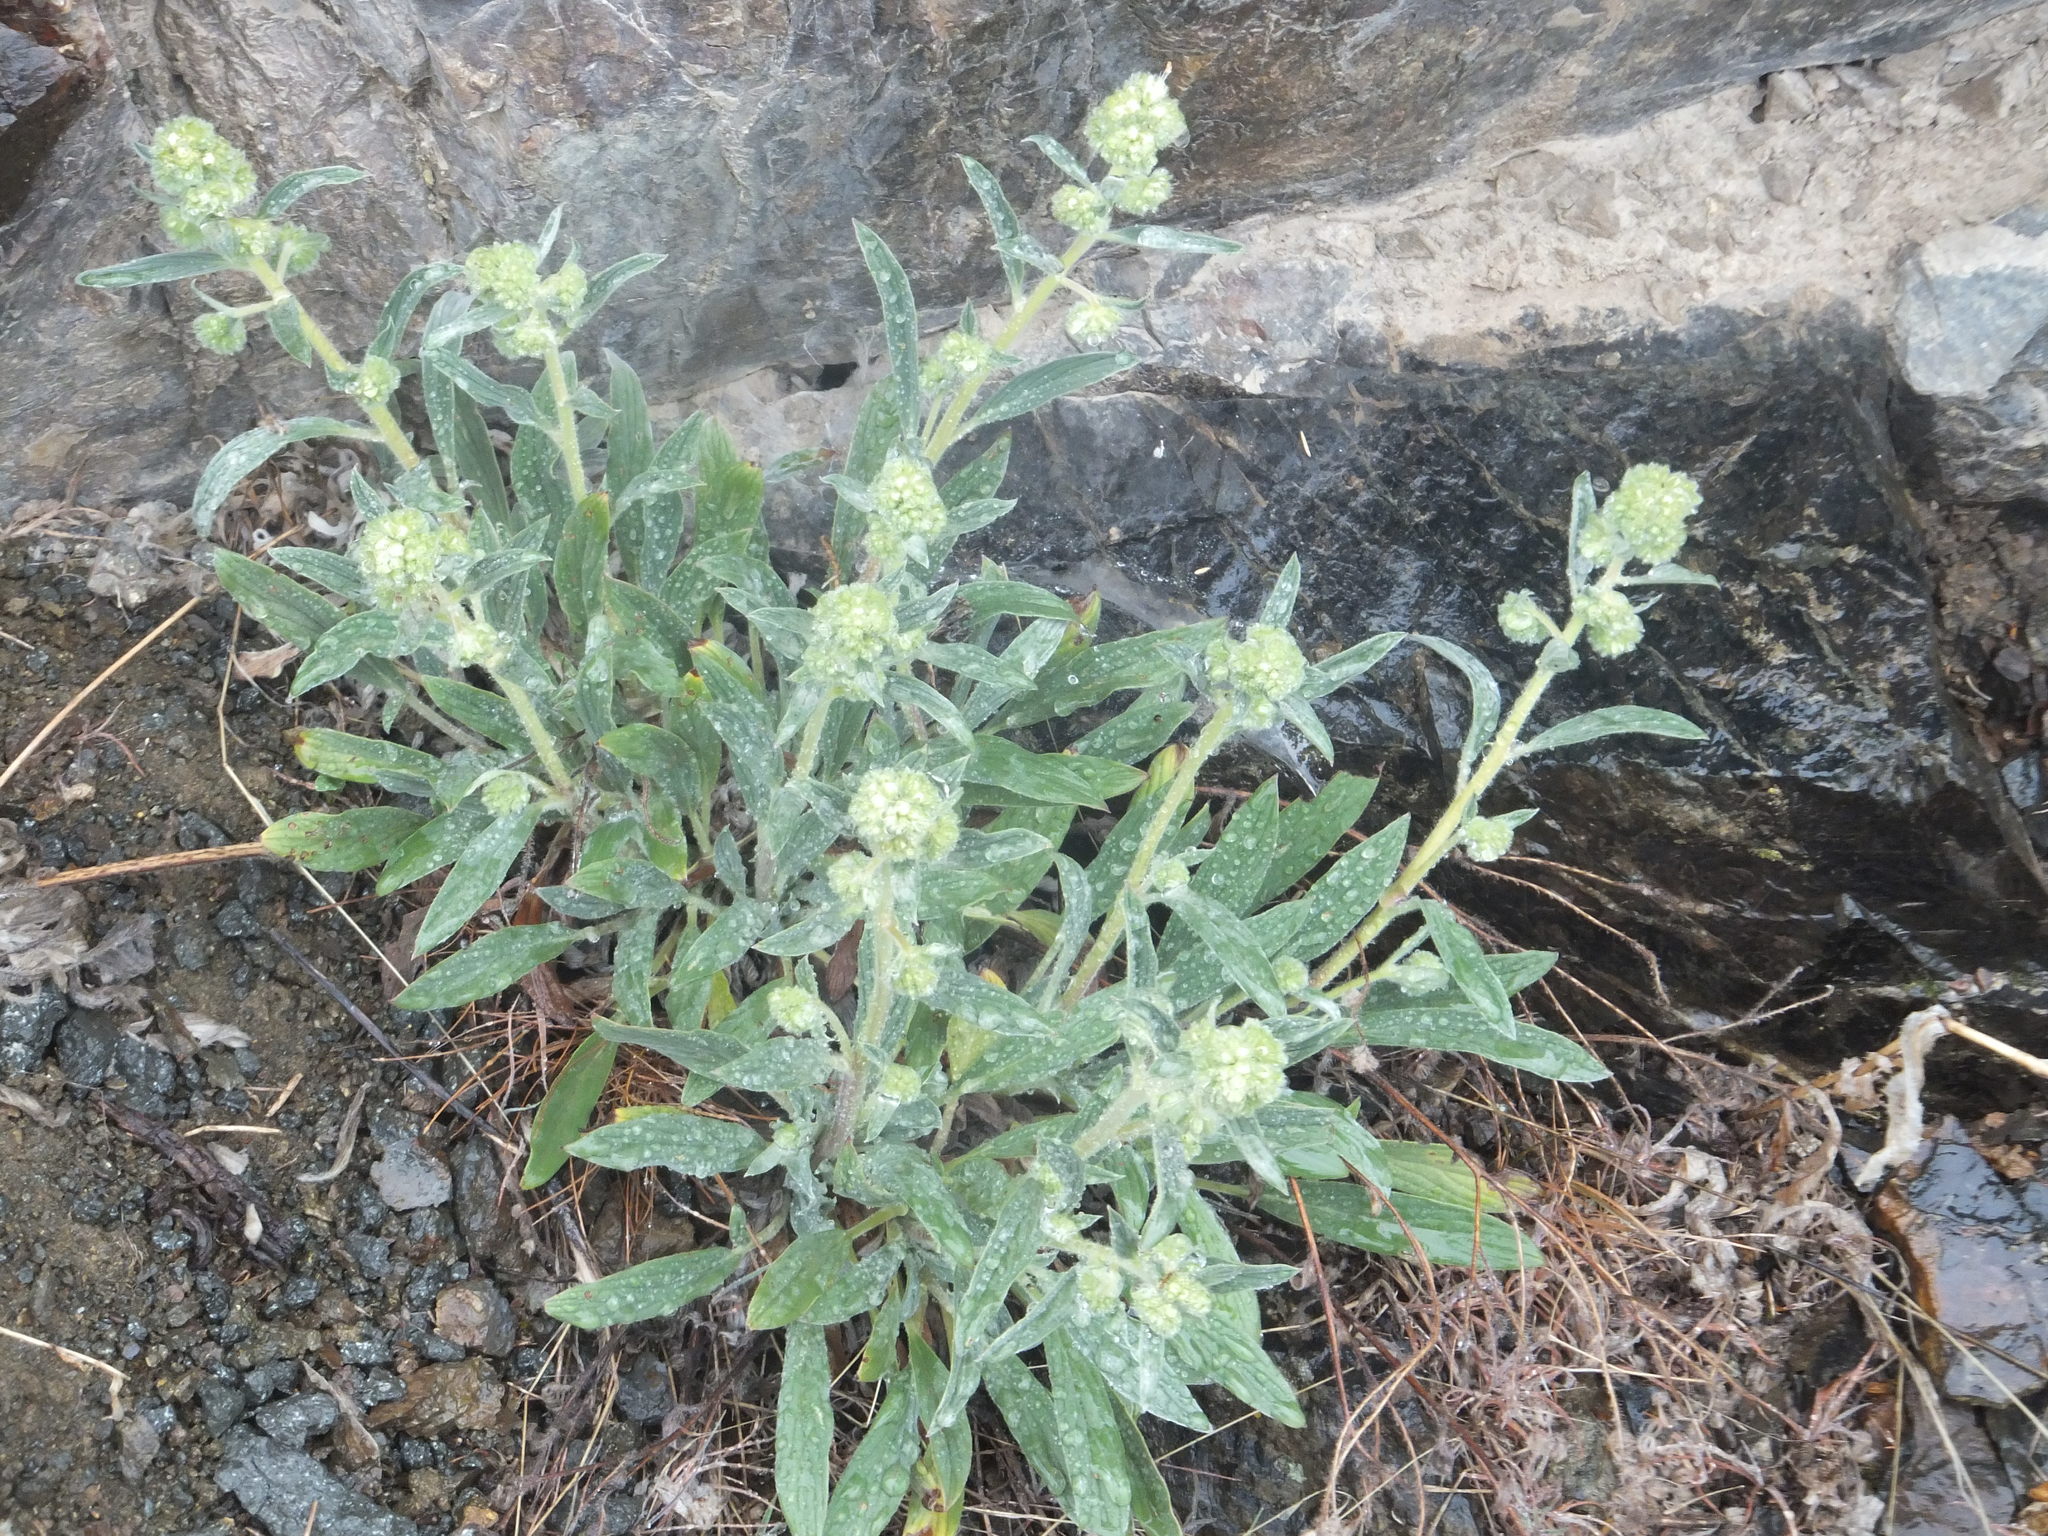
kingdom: Plantae
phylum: Tracheophyta
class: Magnoliopsida
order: Boraginales
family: Hydrophyllaceae
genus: Phacelia
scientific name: Phacelia hastata
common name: Silver-leaved phacelia
